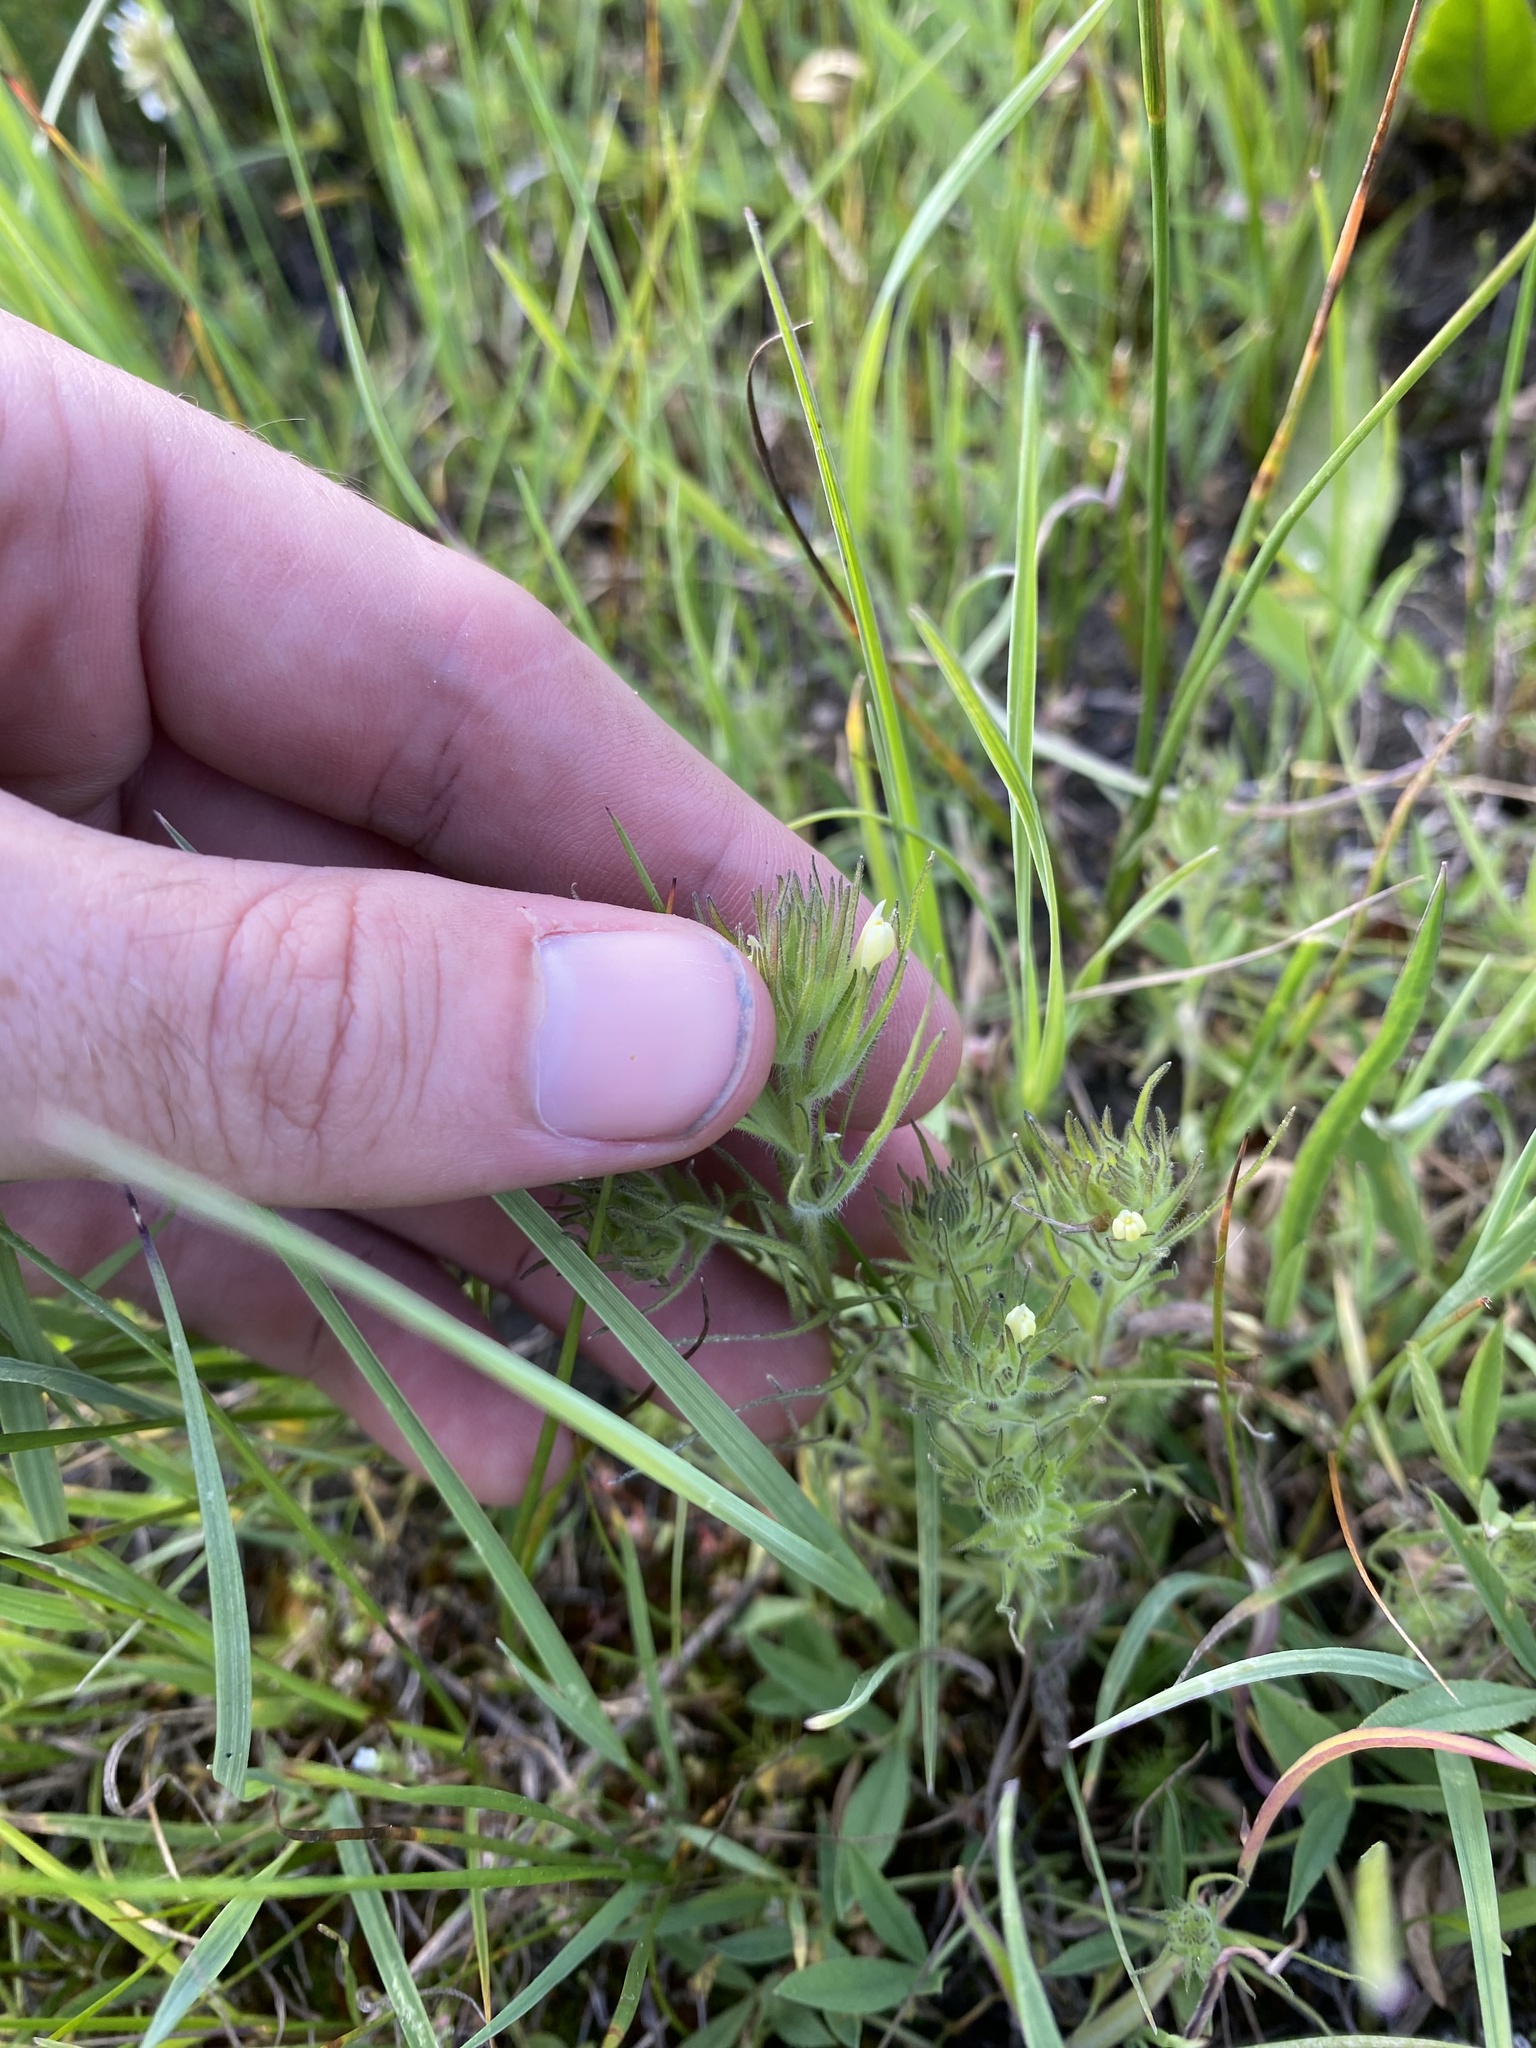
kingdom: Plantae
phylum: Tracheophyta
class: Magnoliopsida
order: Lamiales
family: Orobanchaceae
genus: Castilleja
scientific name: Castilleja tenuis
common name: Hairy indian paintbrush
